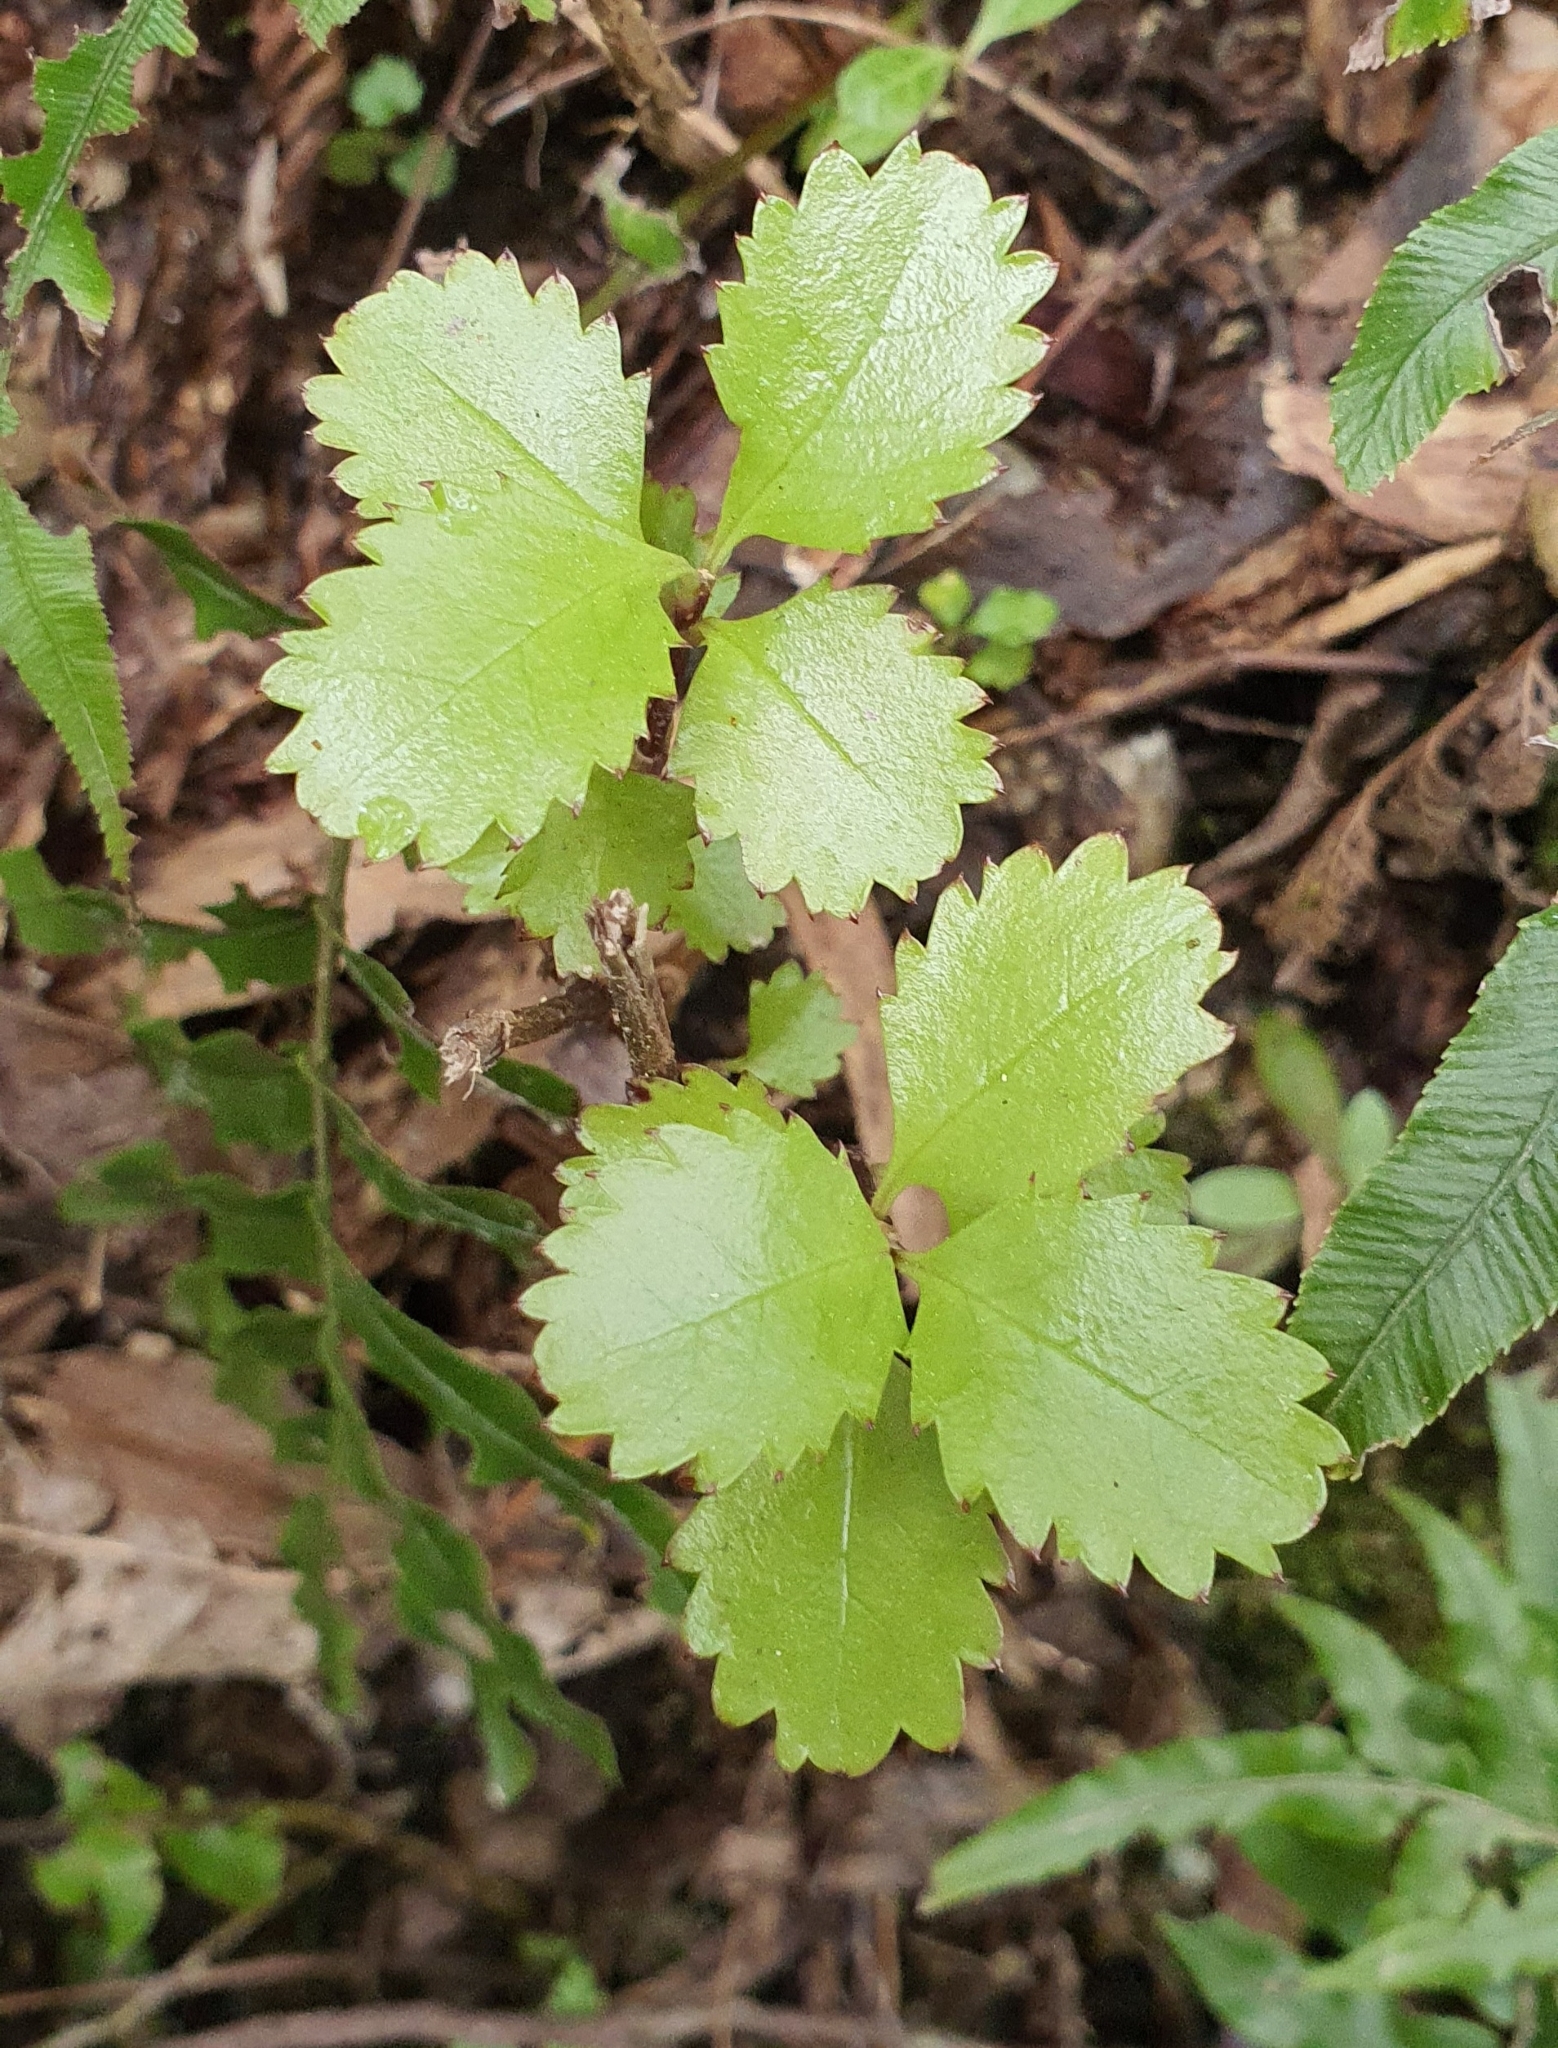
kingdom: Plantae
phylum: Tracheophyta
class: Magnoliopsida
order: Chloranthales
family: Chloranthaceae
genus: Ascarina
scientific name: Ascarina lucida
